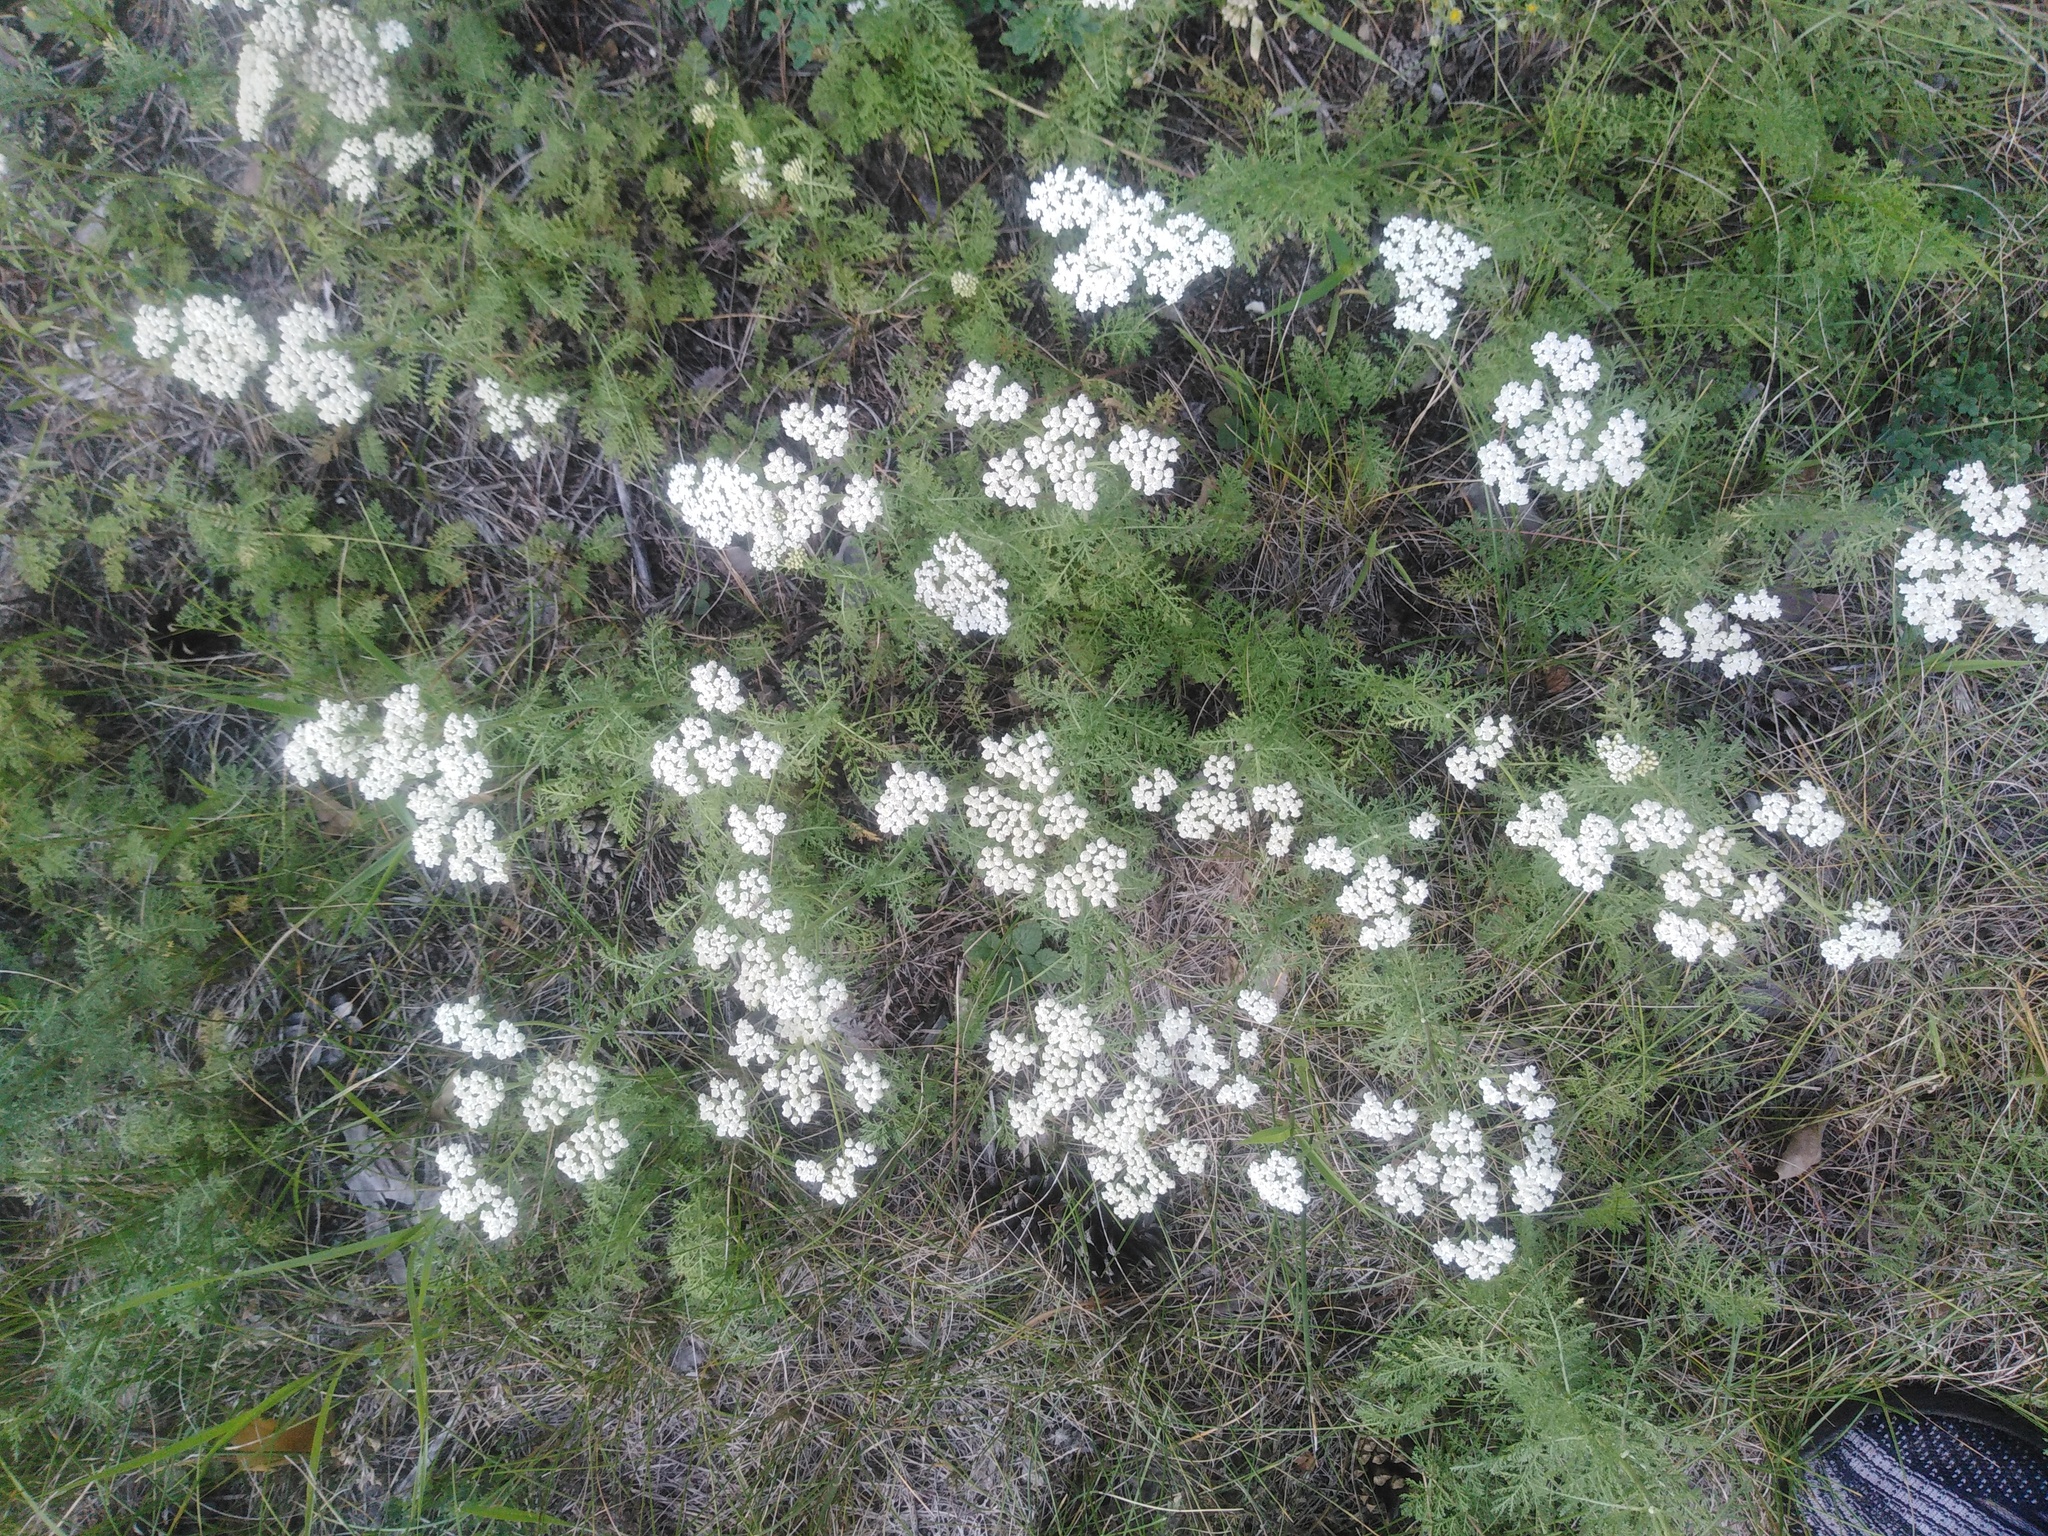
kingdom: Plantae
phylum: Tracheophyta
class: Magnoliopsida
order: Asterales
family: Asteraceae
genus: Achillea
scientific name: Achillea nobilis
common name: Noble yarrow
